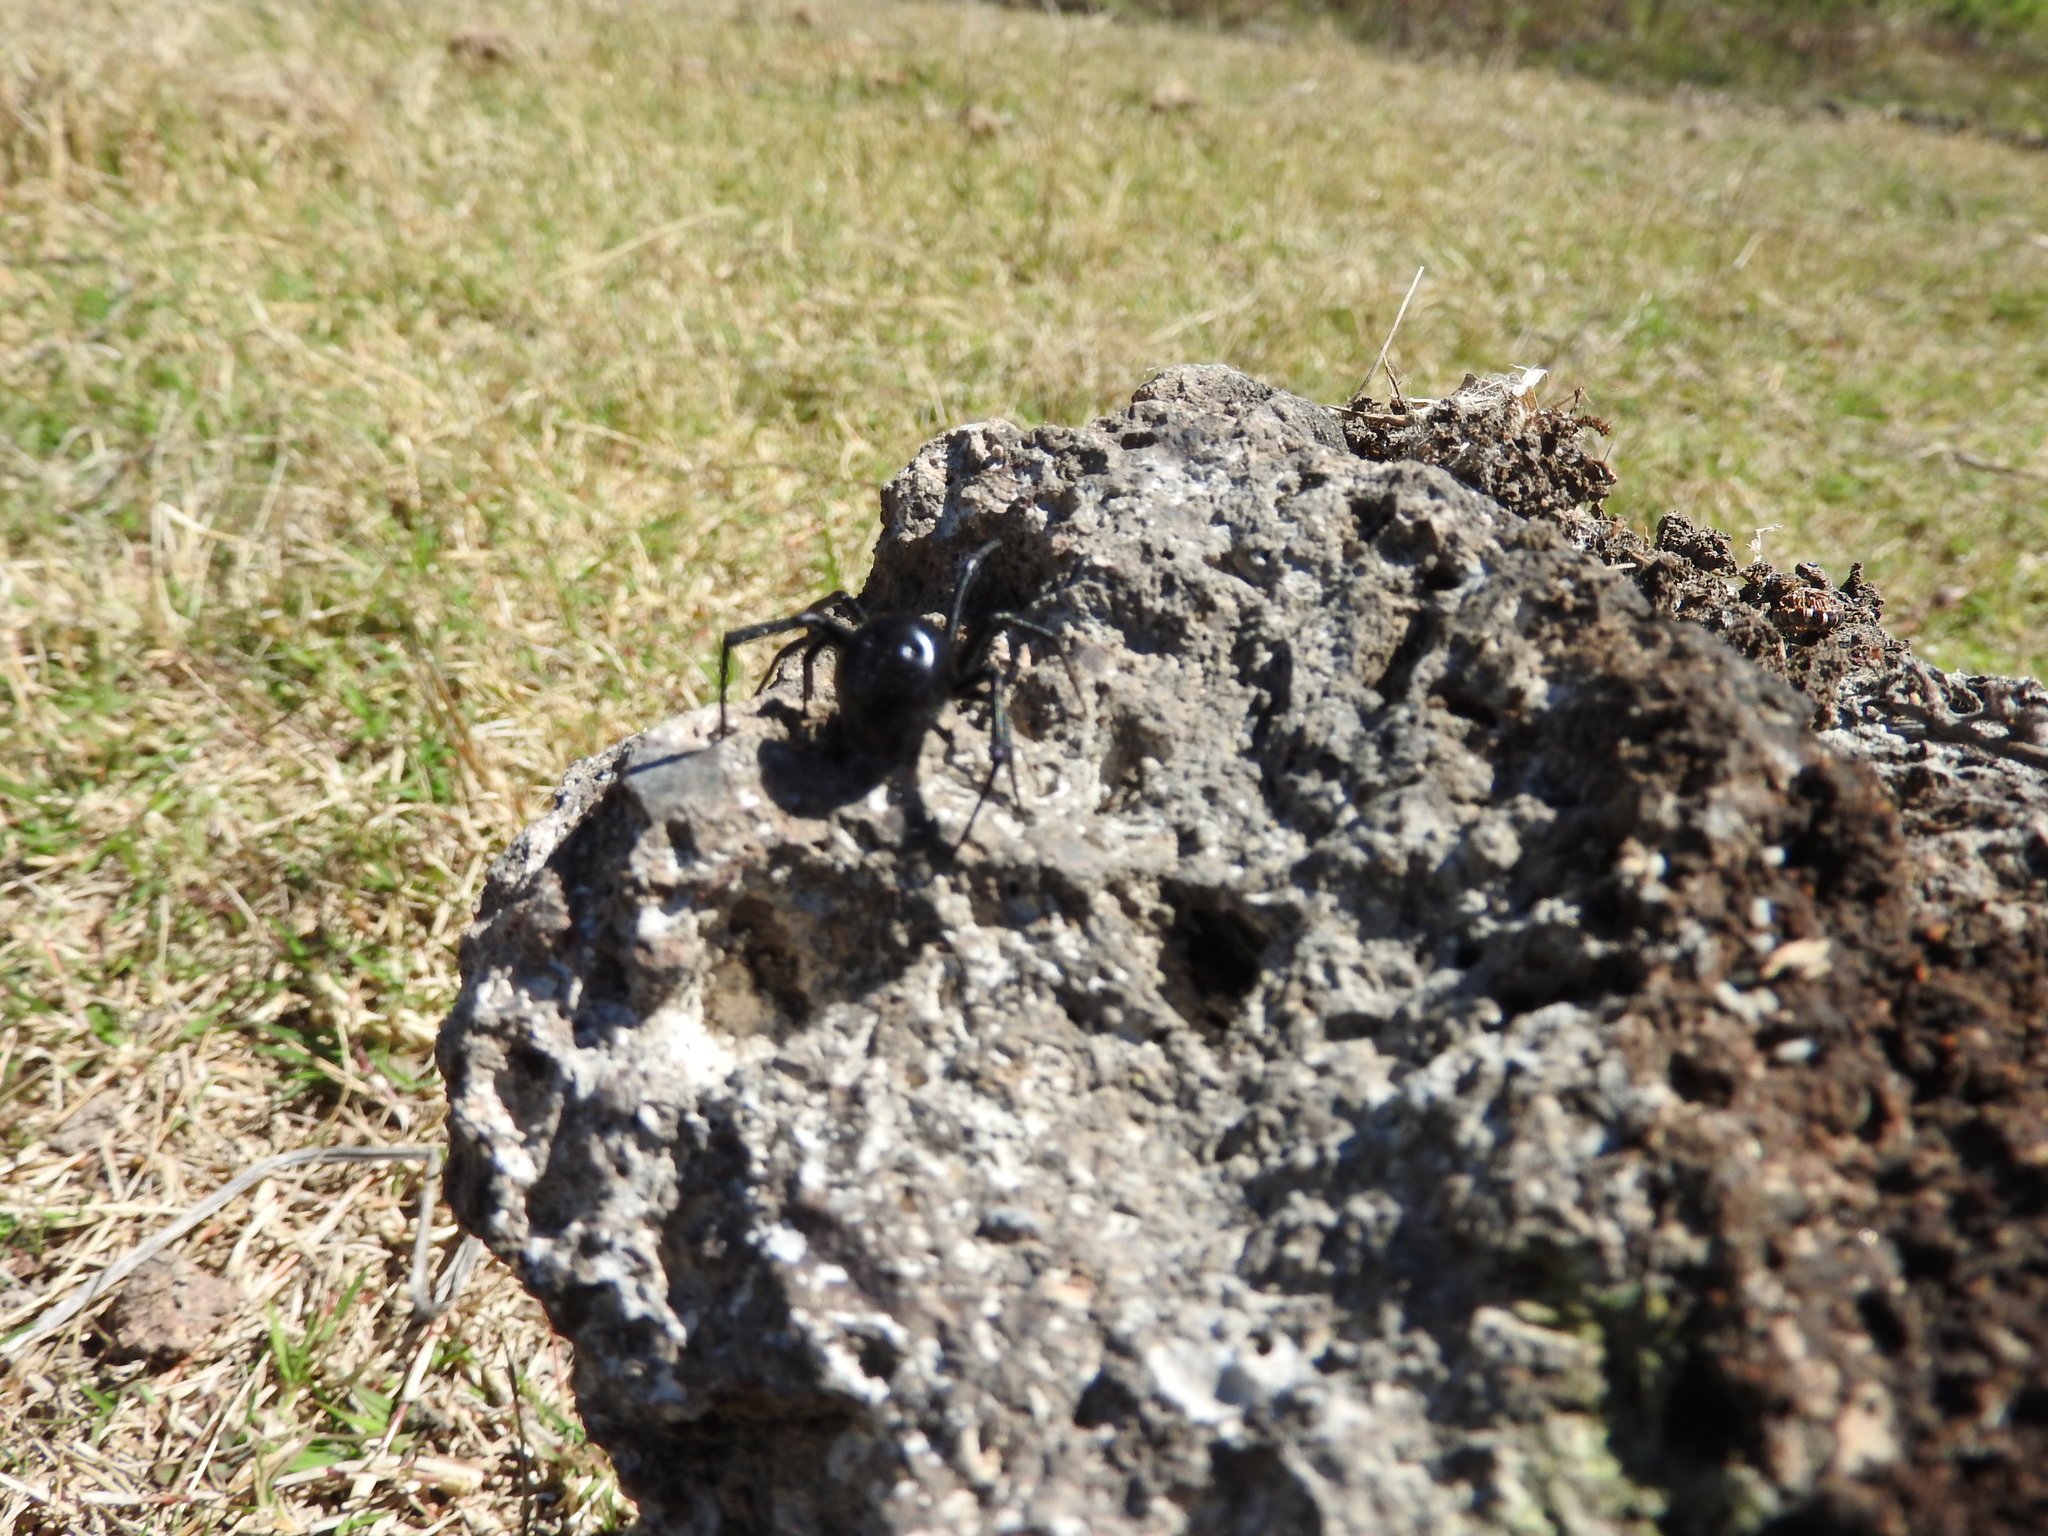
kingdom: Animalia
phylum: Arthropoda
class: Arachnida
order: Araneae
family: Theridiidae
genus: Latrodectus
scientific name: Latrodectus mactans
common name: Cobweb spiders
